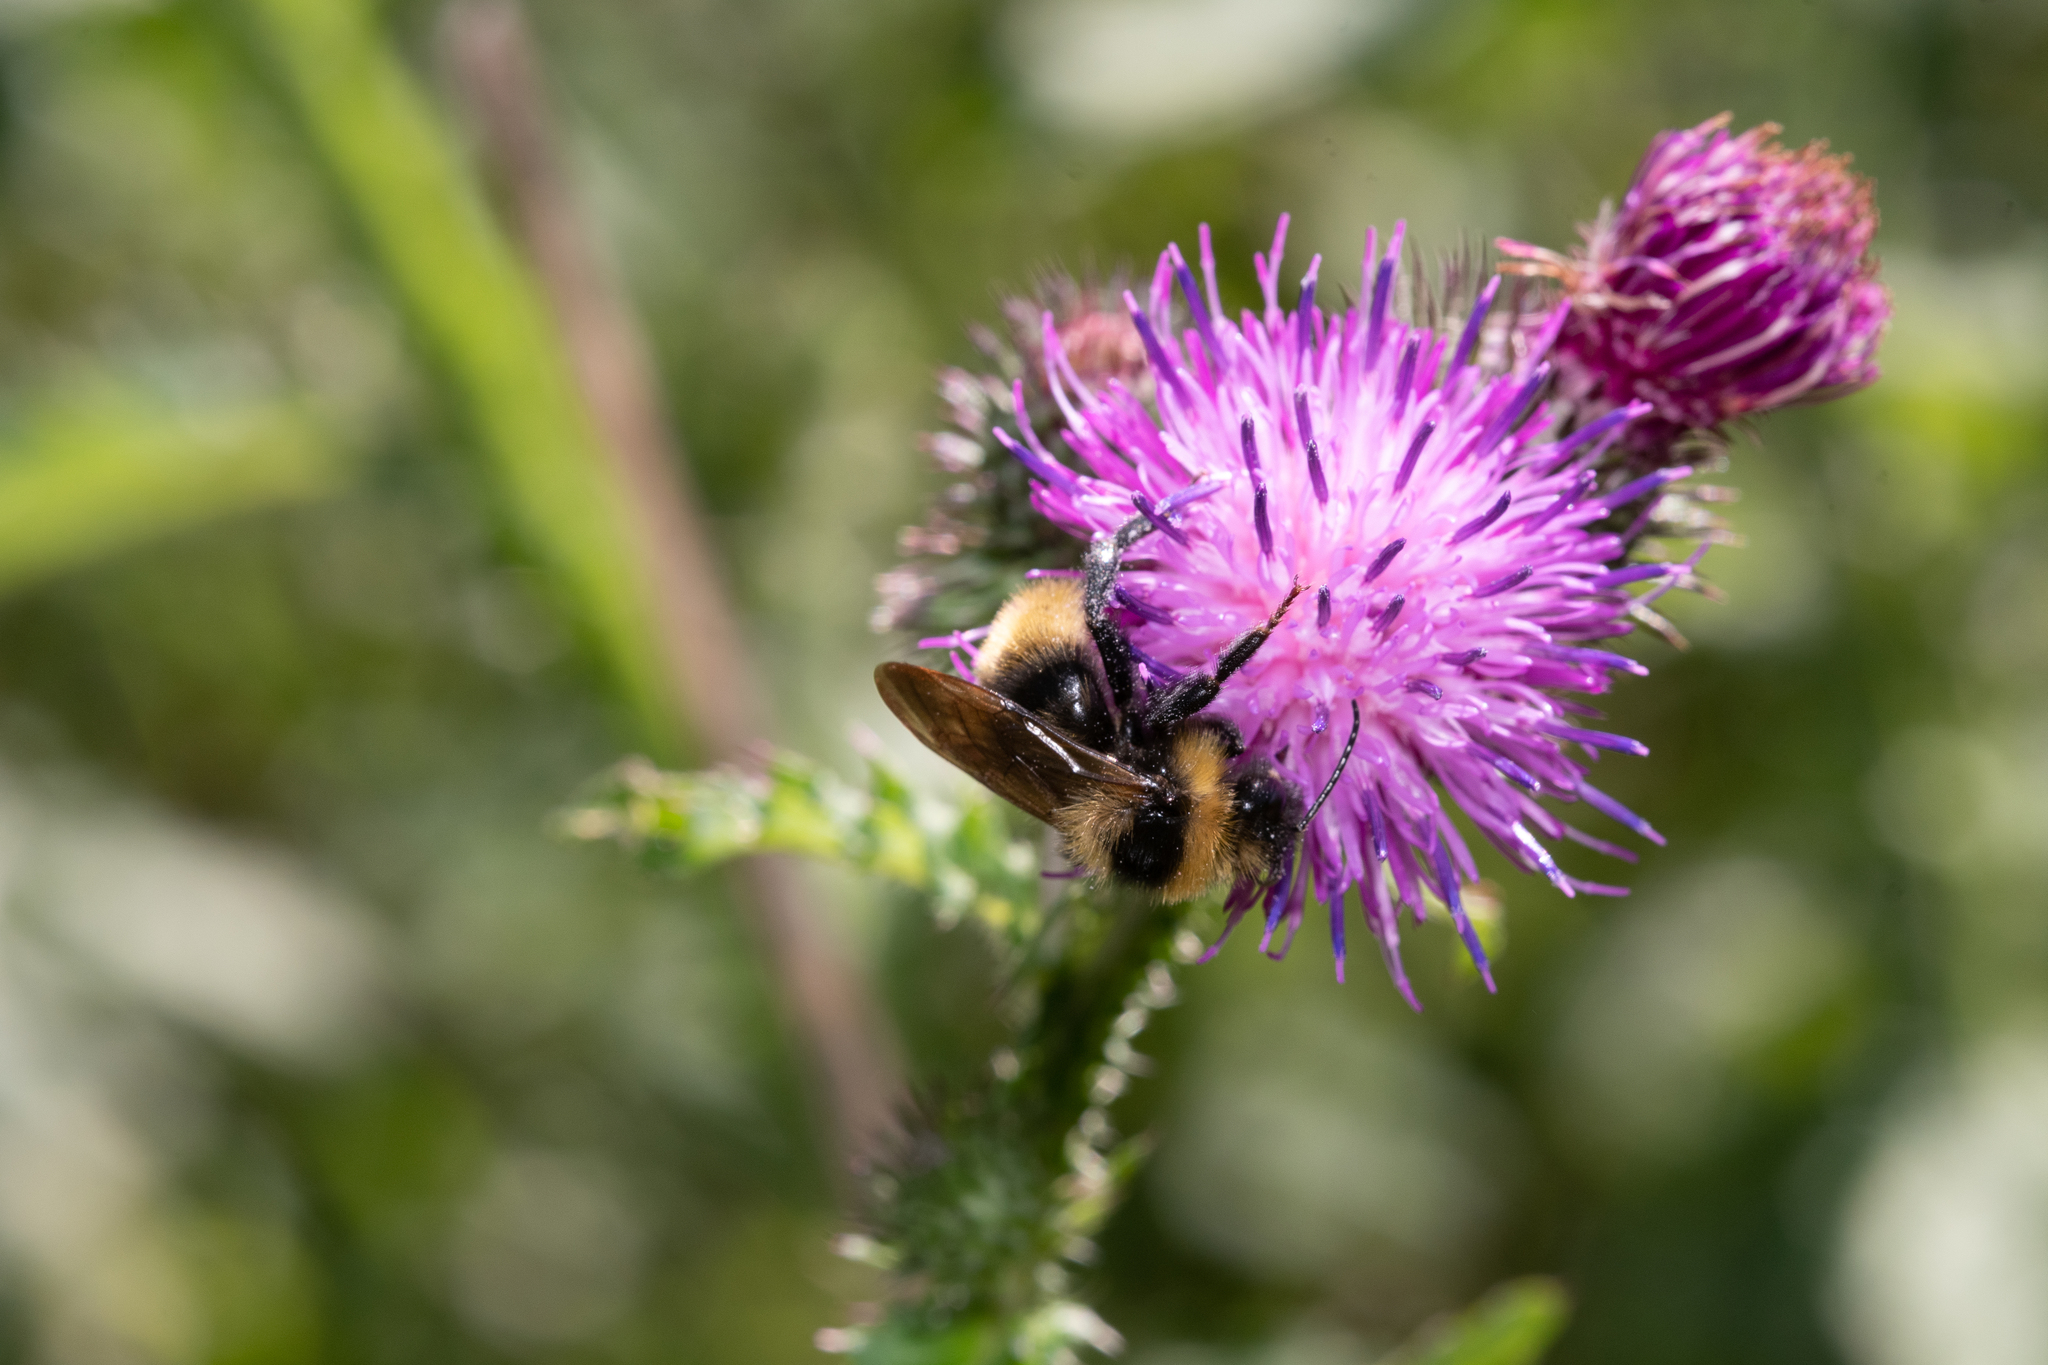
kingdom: Animalia
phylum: Arthropoda
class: Insecta
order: Hymenoptera
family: Apidae
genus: Bombus
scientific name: Bombus campestris
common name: Field cuckoo-bee
